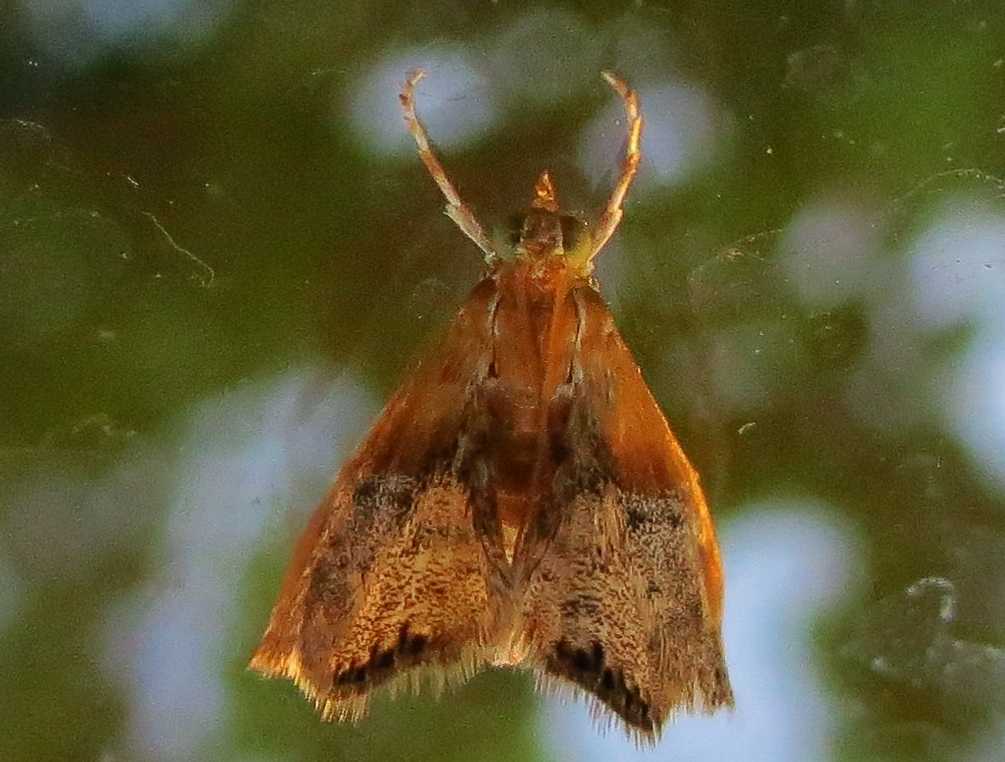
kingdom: Animalia
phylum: Arthropoda
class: Insecta
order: Lepidoptera
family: Crambidae
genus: Chalcoela
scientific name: Chalcoela iphitalis
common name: Sooty-winged chalcoela moth
